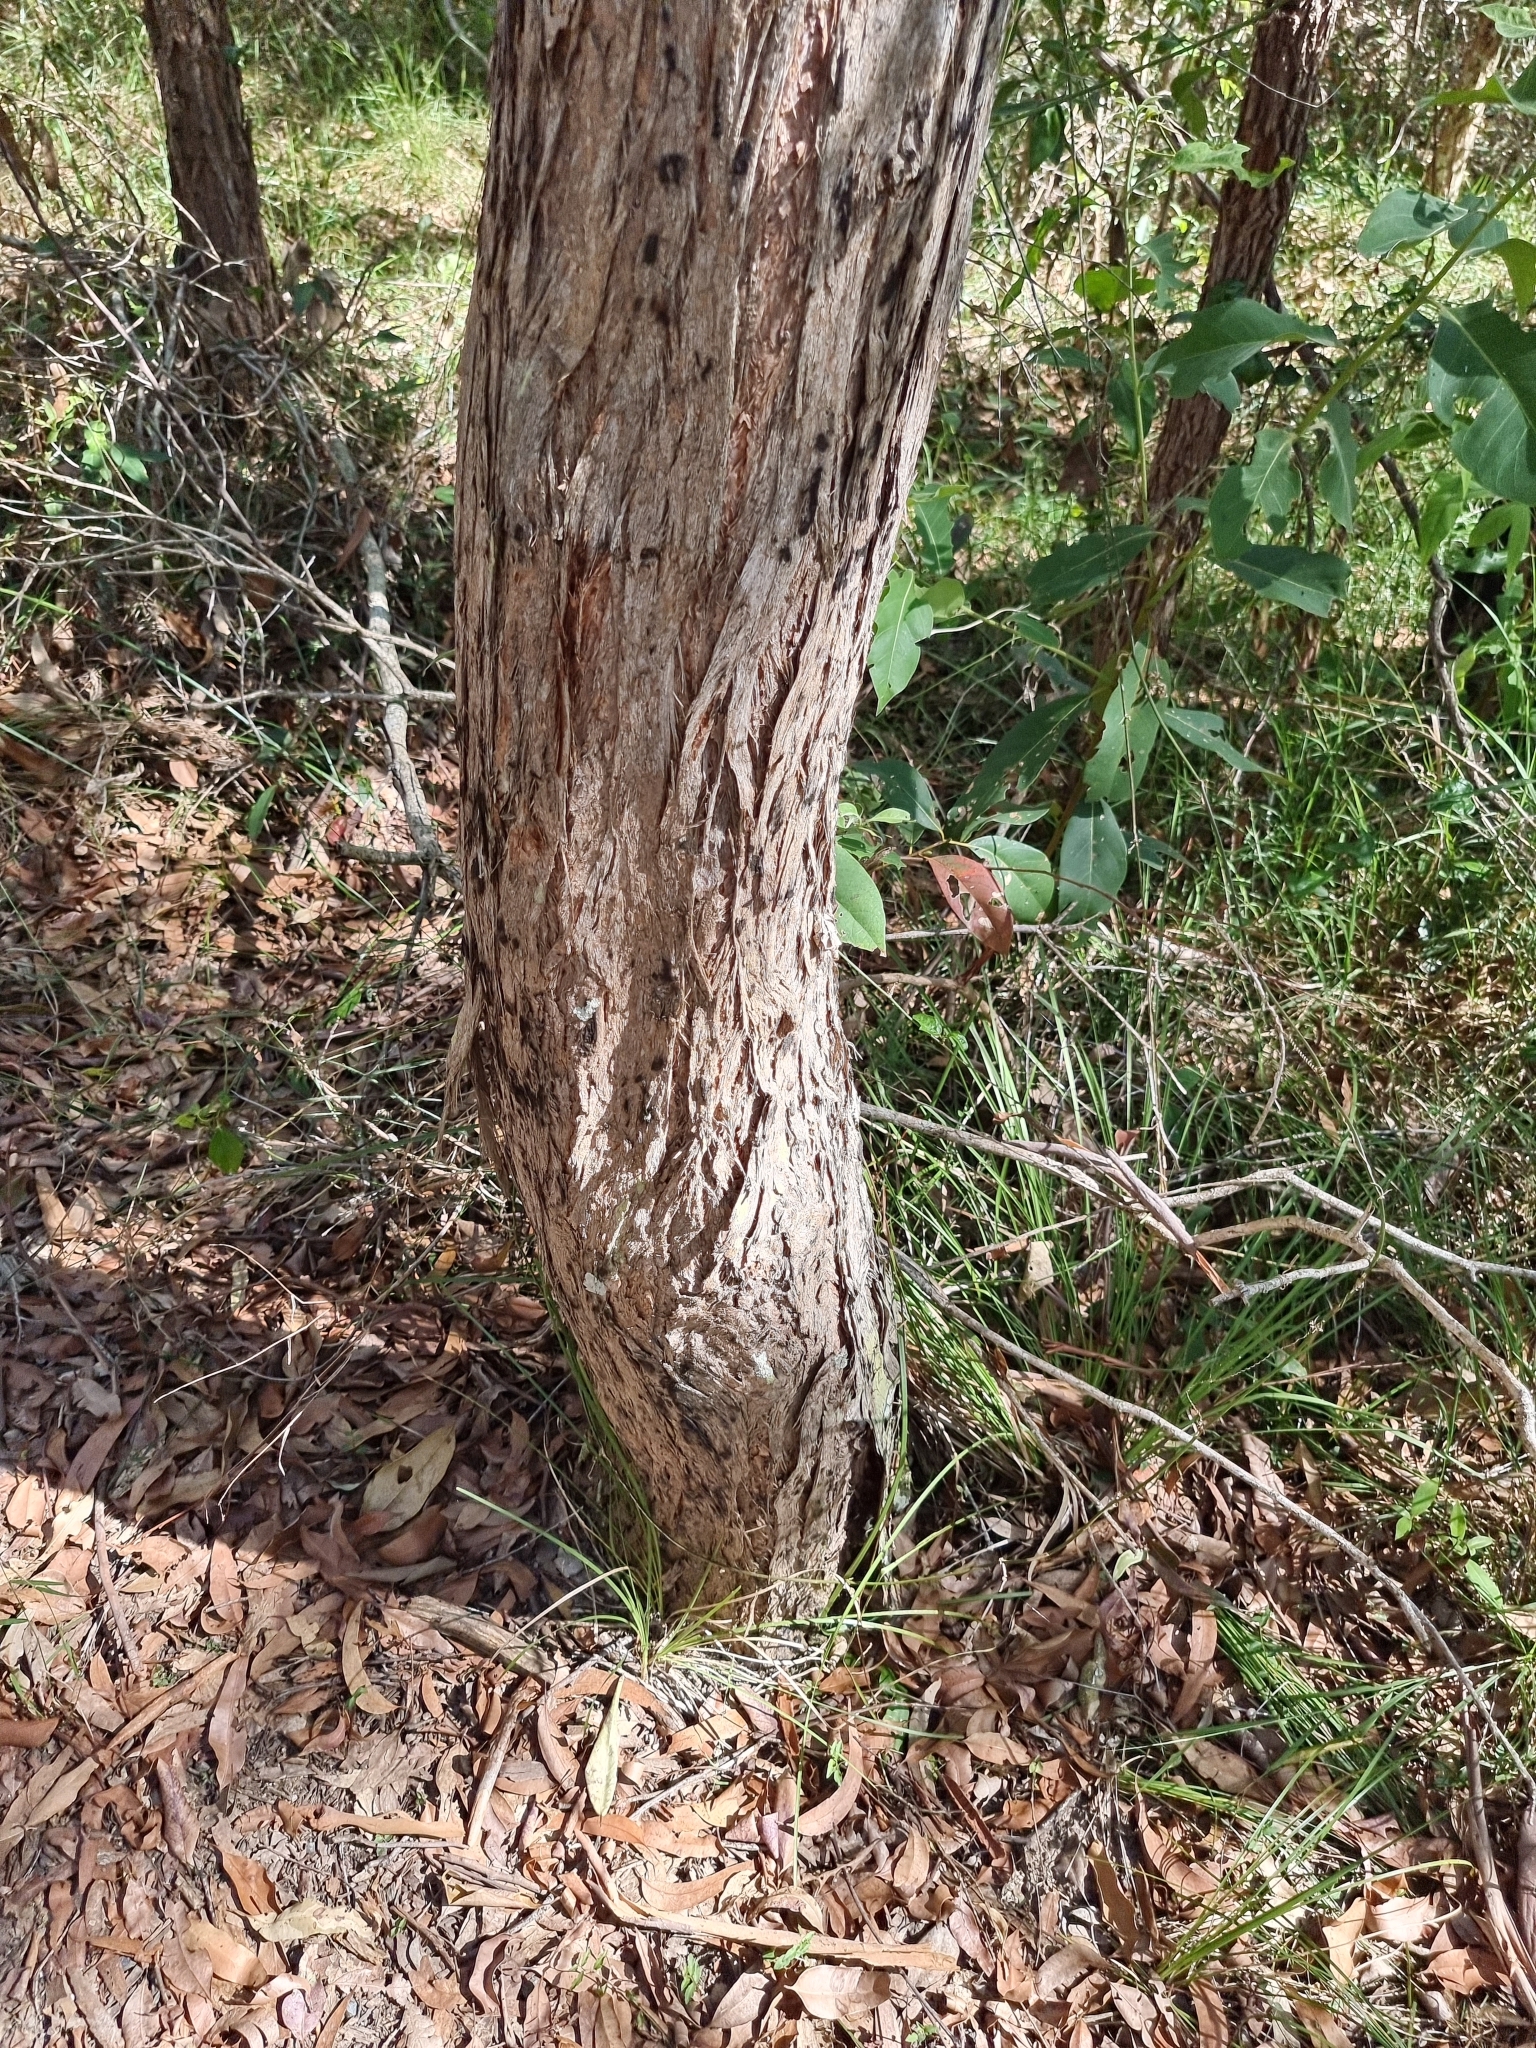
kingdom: Plantae
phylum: Tracheophyta
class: Magnoliopsida
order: Myrtales
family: Myrtaceae
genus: Lophostemon
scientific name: Lophostemon suaveolens
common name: Paperbark-mahogany
